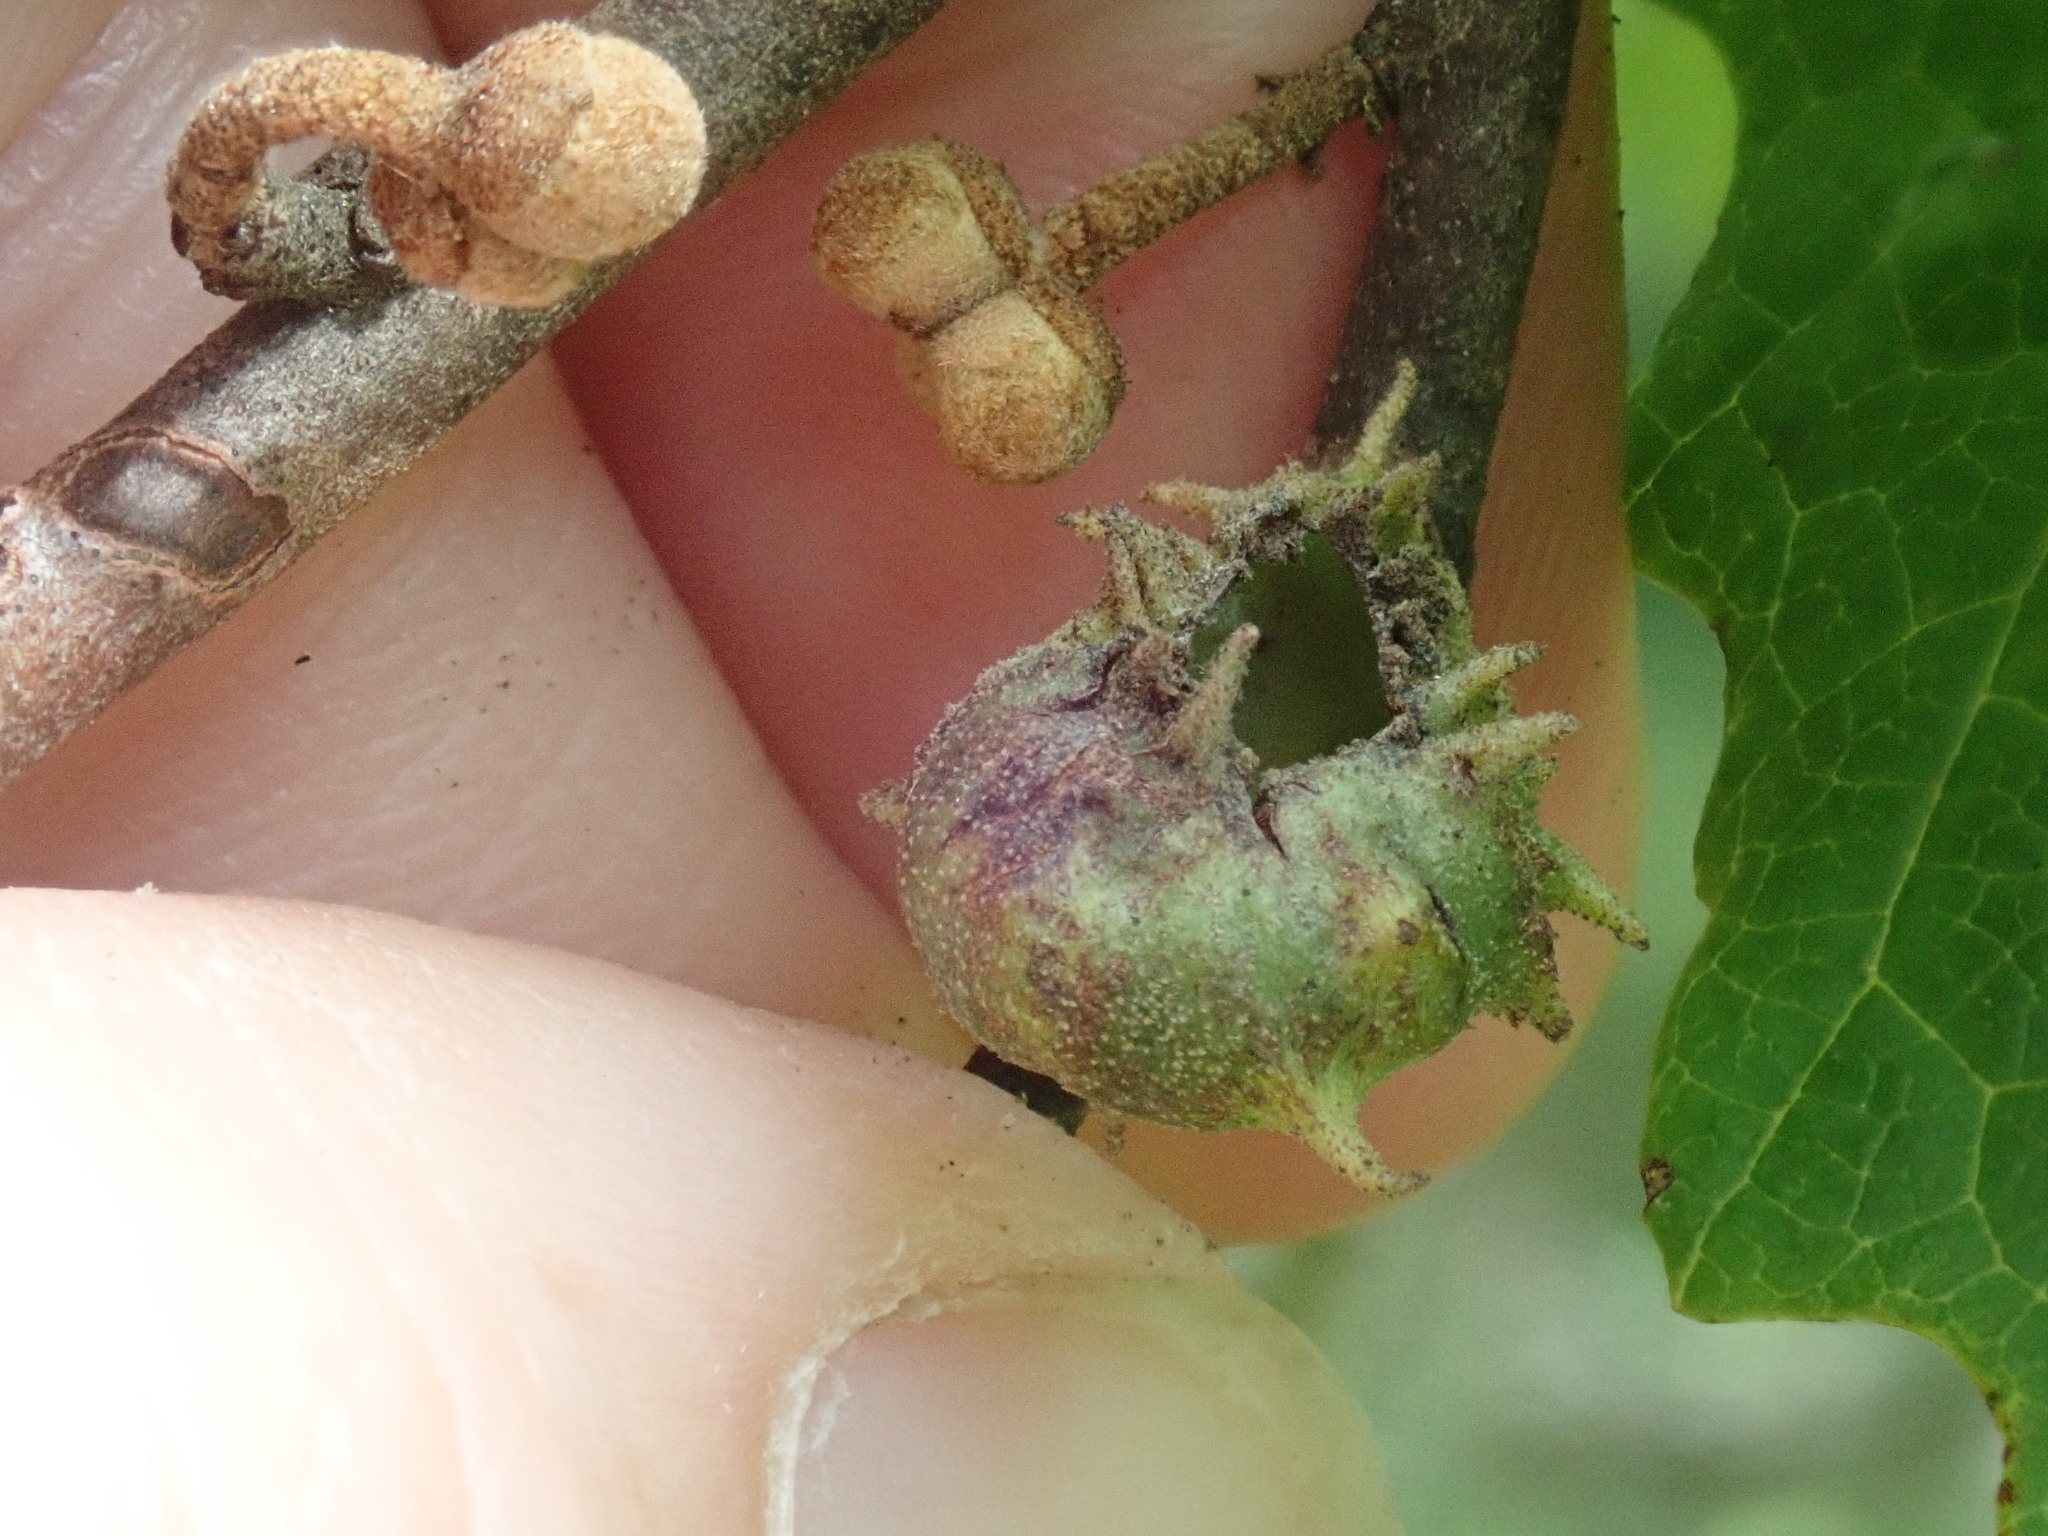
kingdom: Animalia
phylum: Arthropoda
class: Insecta
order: Hemiptera
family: Aphididae
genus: Hamamelistes
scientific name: Hamamelistes spinosus
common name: Witch hazel gall aphid
